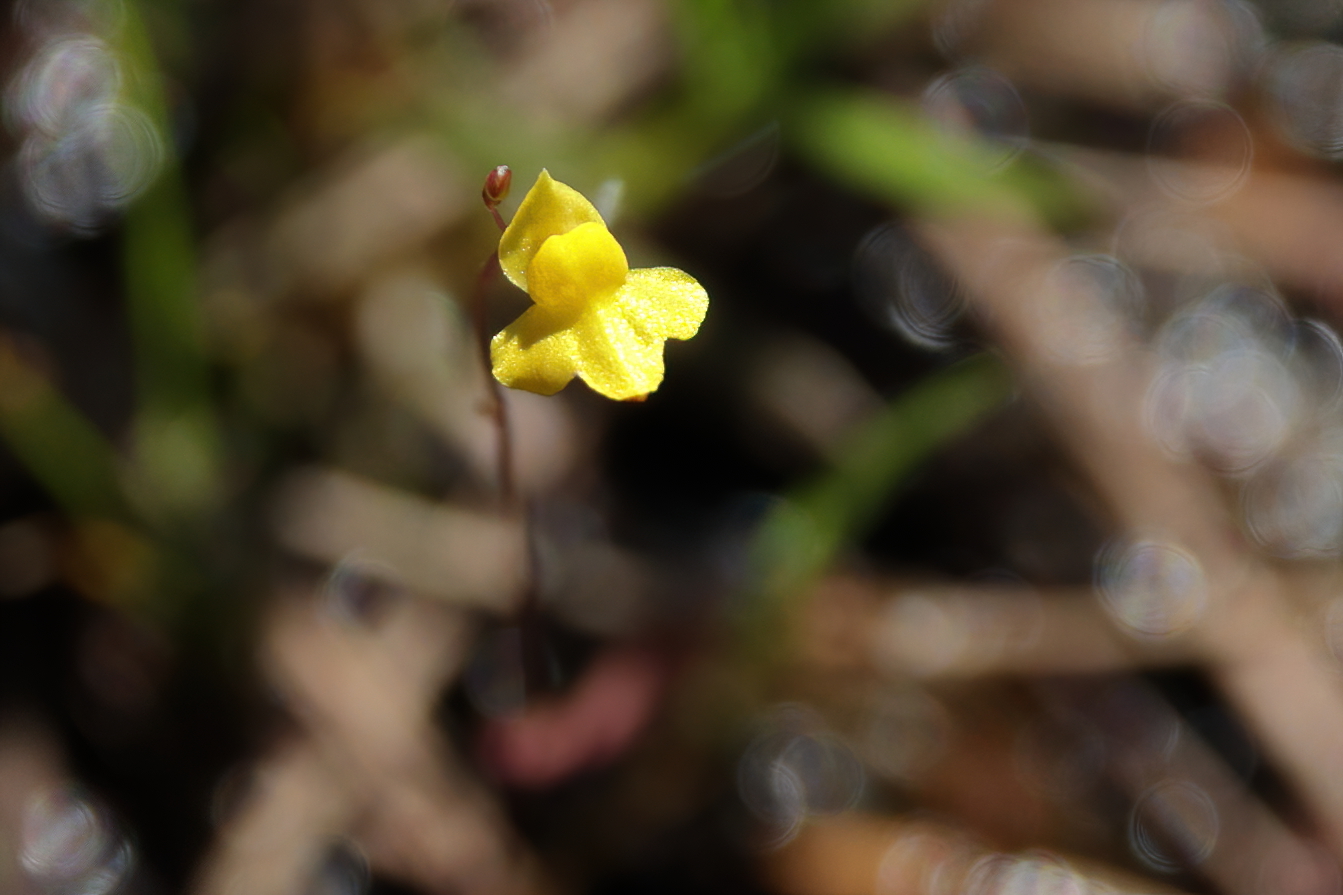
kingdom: Plantae
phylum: Tracheophyta
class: Magnoliopsida
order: Lamiales
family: Lentibulariaceae
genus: Utricularia
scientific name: Utricularia subulata
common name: Tiny bladderwort
